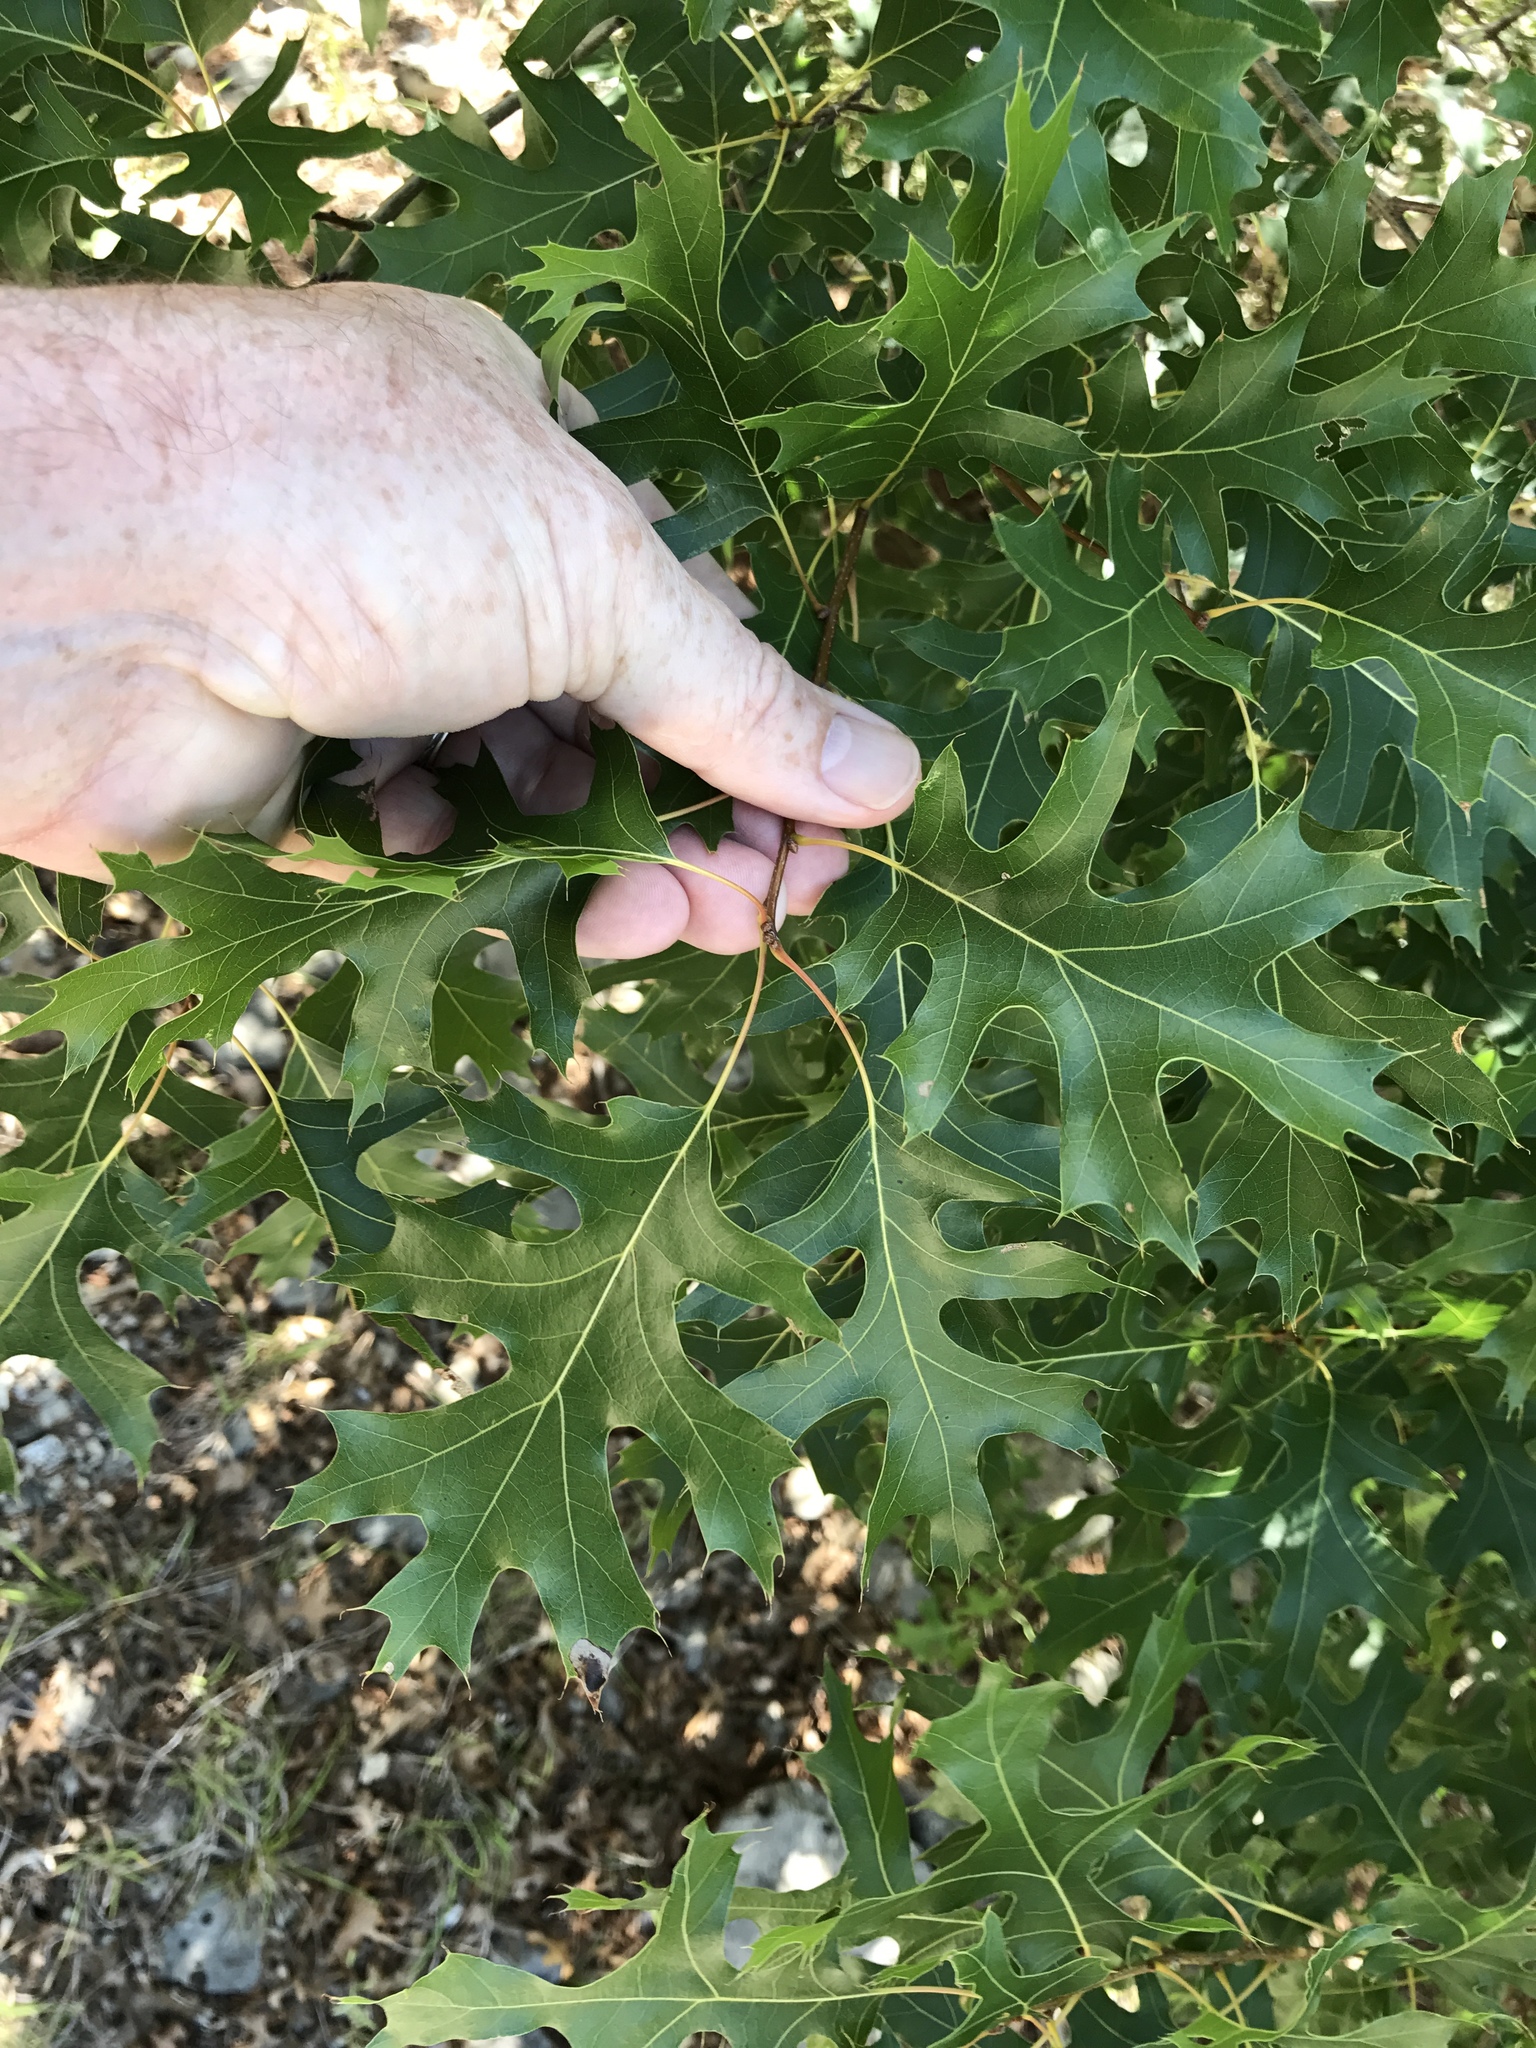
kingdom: Plantae
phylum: Tracheophyta
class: Magnoliopsida
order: Fagales
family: Fagaceae
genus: Quercus
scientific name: Quercus buckleyi
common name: Buckley oak
